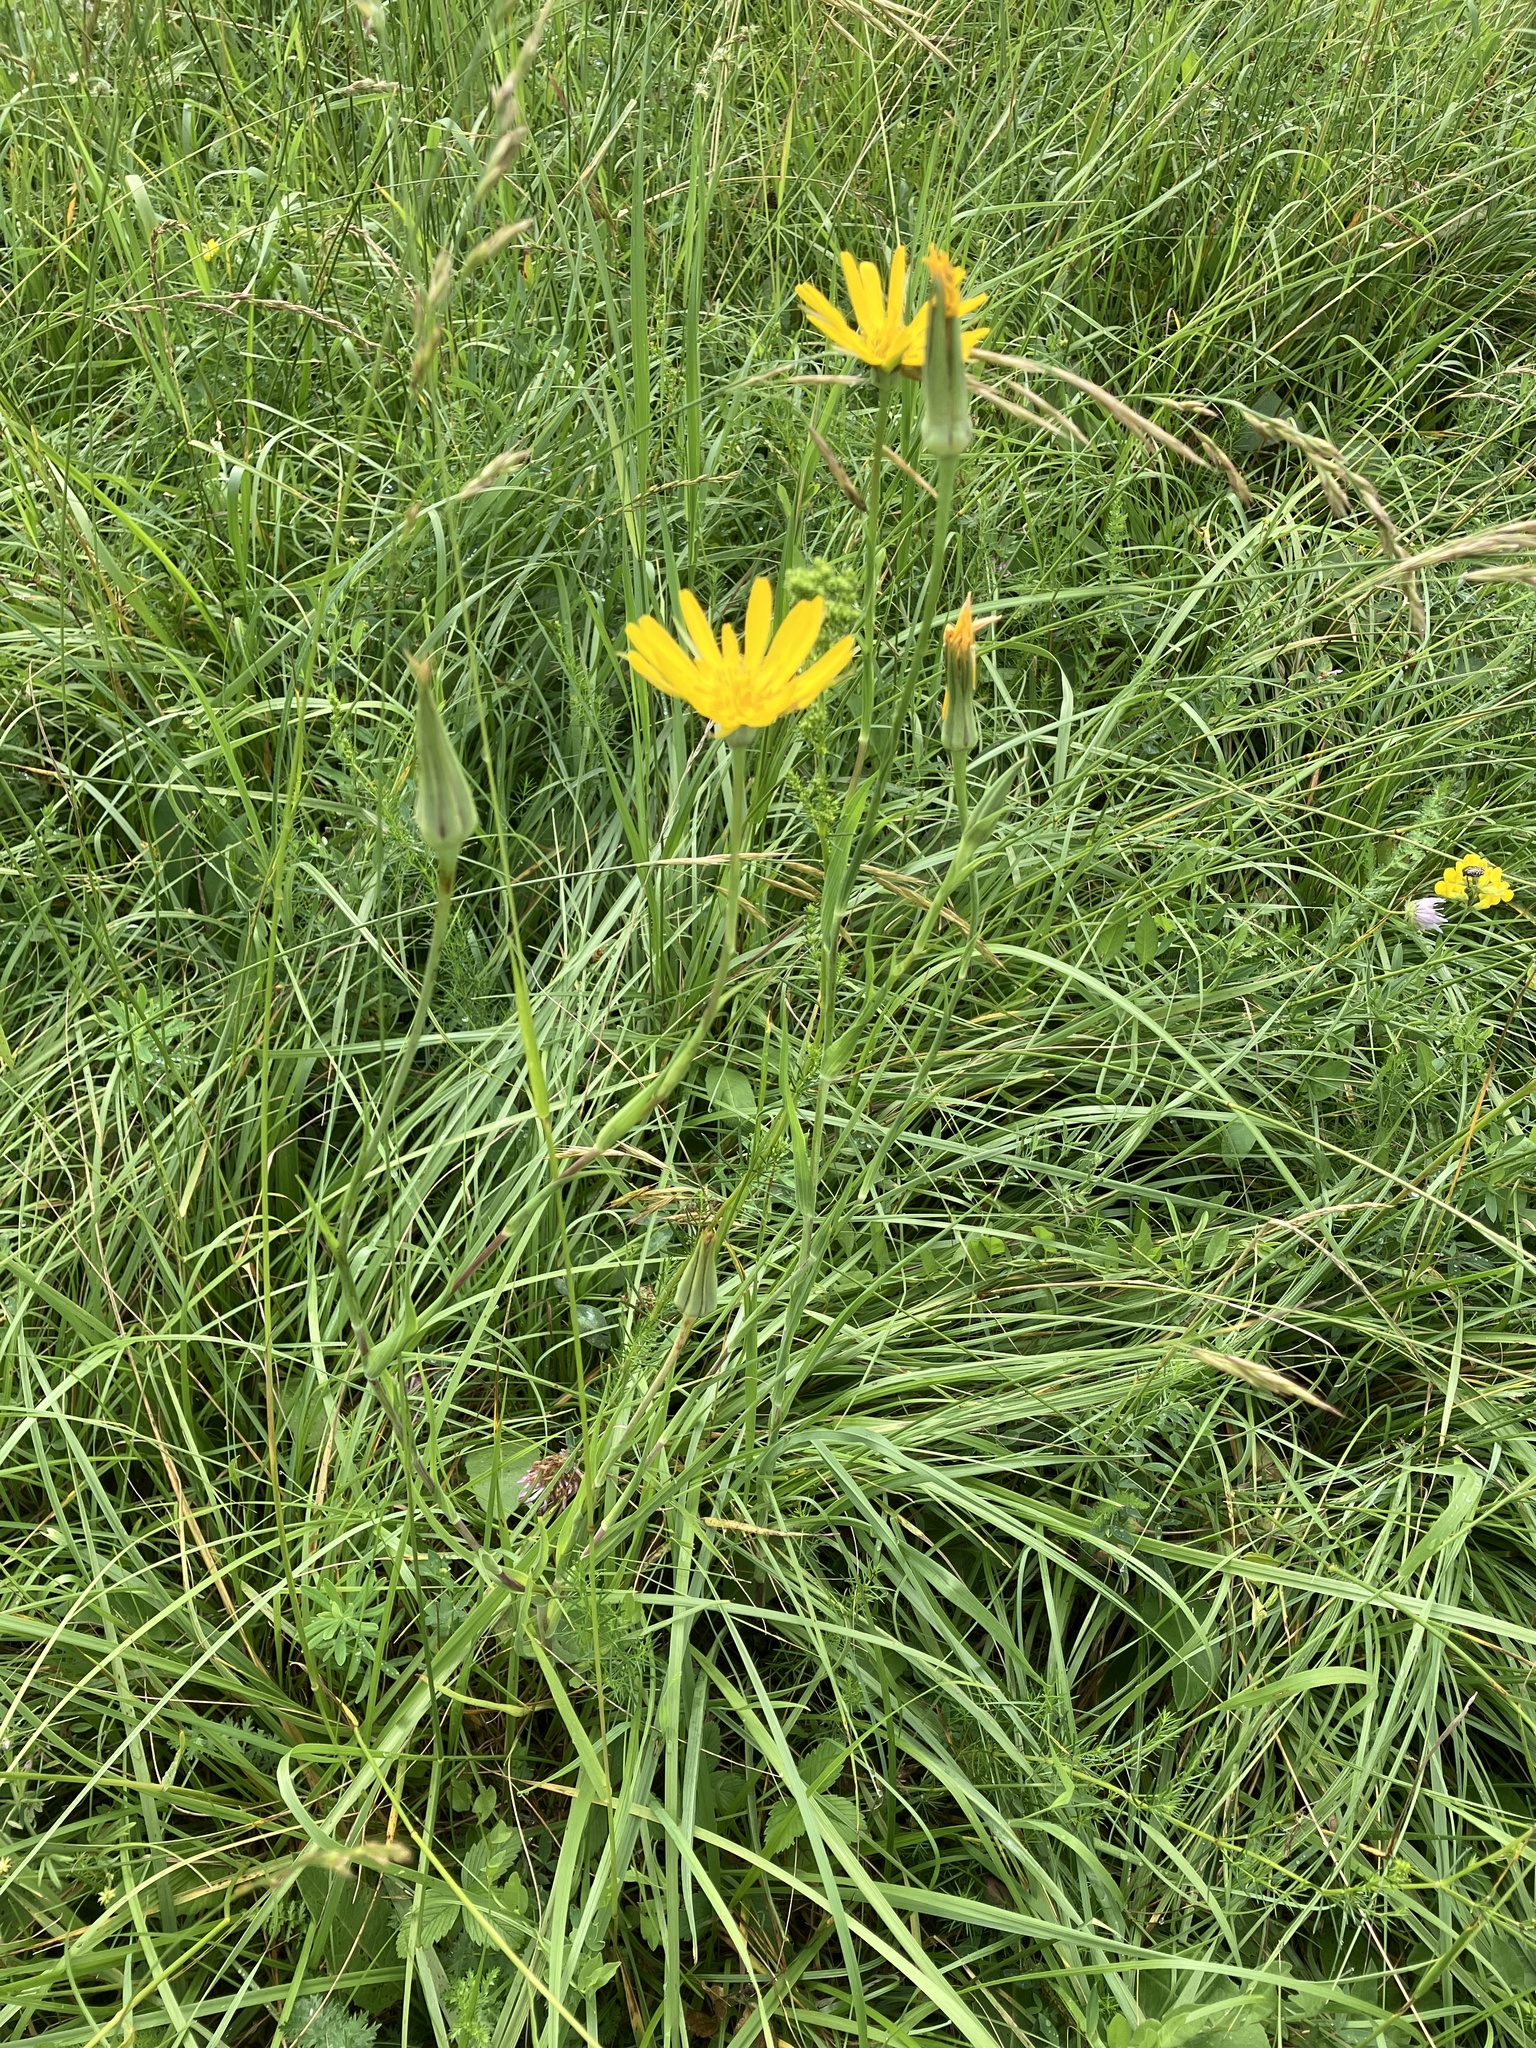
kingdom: Plantae
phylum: Tracheophyta
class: Magnoliopsida
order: Asterales
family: Asteraceae
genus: Tragopogon
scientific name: Tragopogon orientalis
